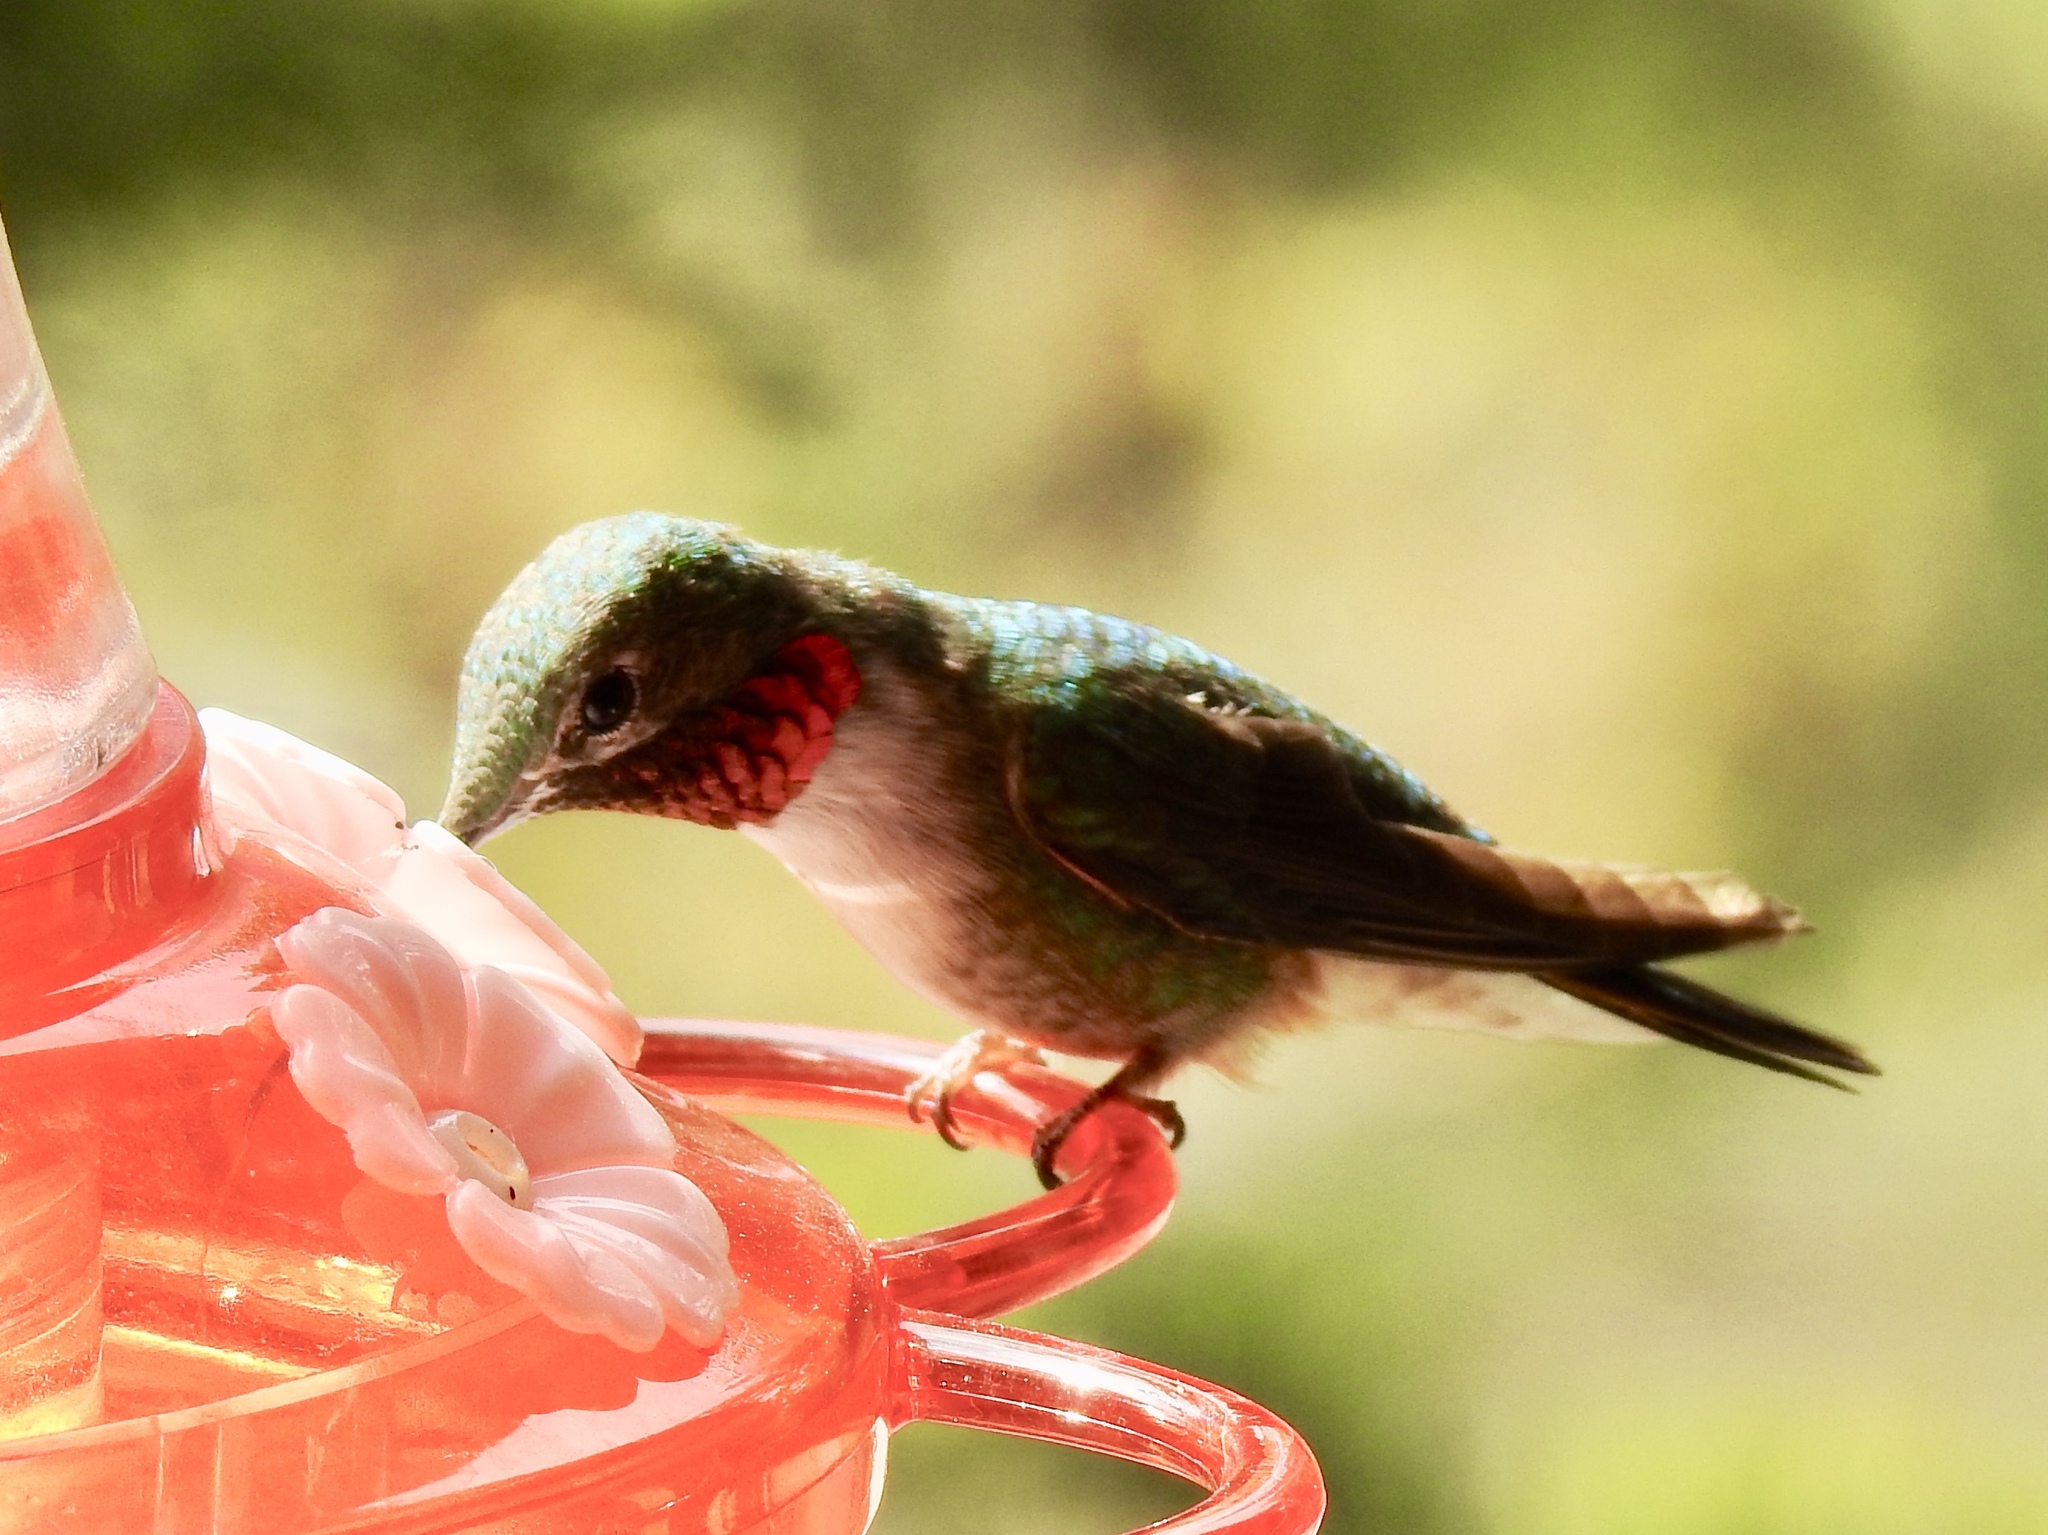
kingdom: Animalia
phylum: Chordata
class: Aves
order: Apodiformes
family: Trochilidae
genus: Selasphorus
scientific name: Selasphorus platycercus
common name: Broad-tailed hummingbird
